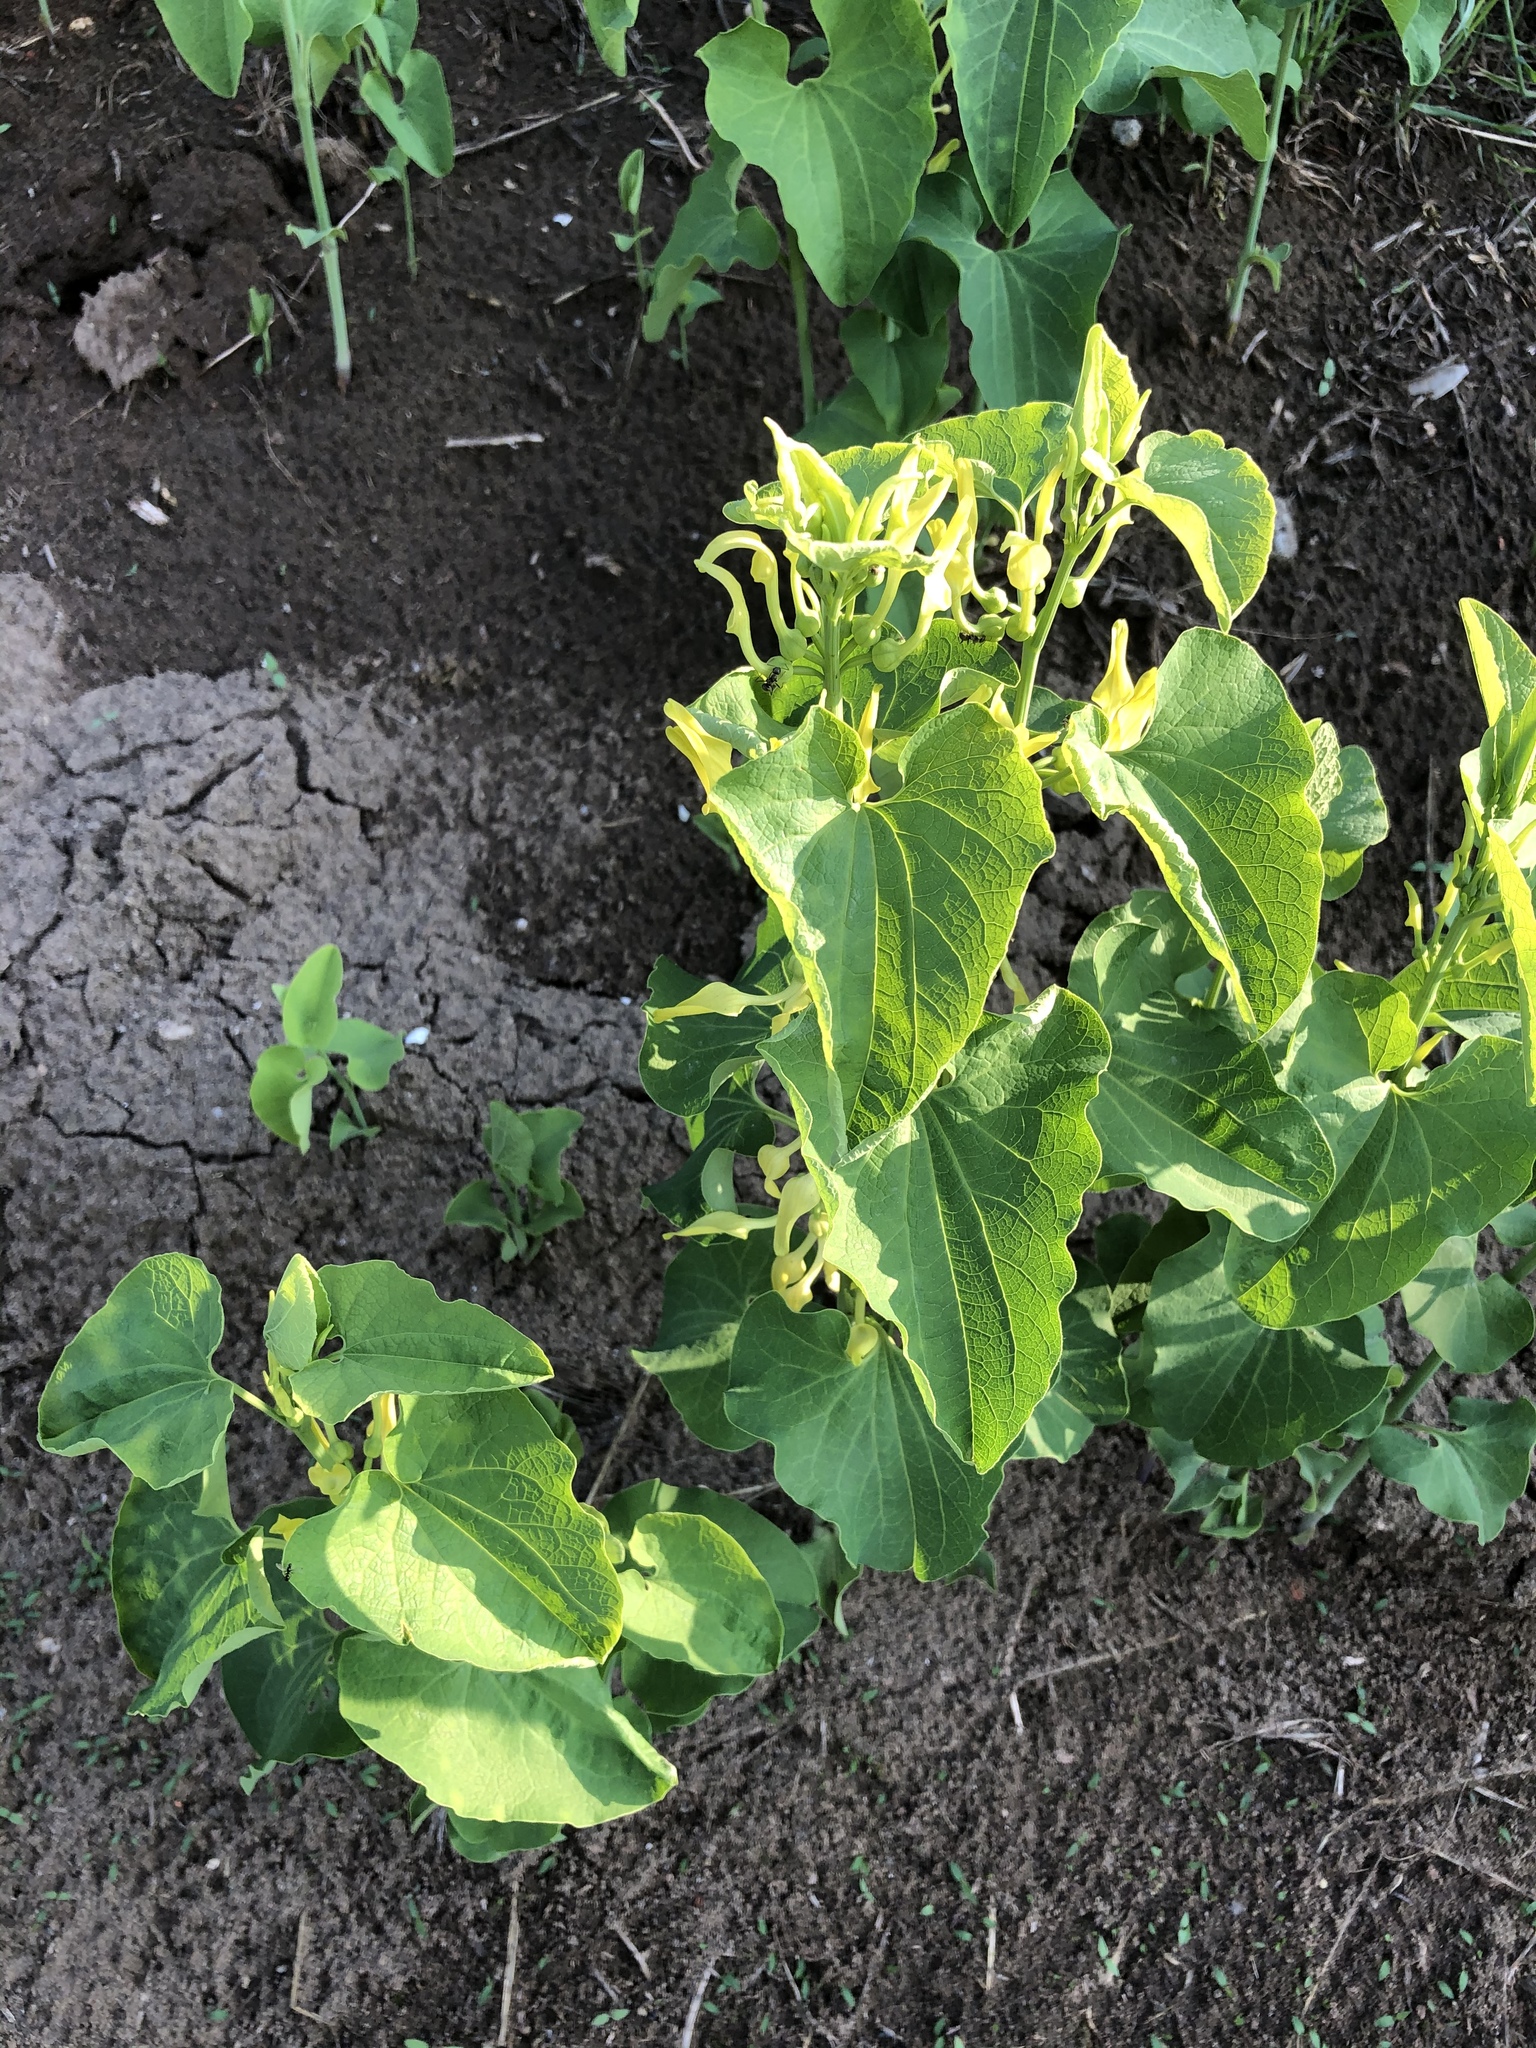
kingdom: Plantae
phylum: Tracheophyta
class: Magnoliopsida
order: Piperales
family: Aristolochiaceae
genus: Aristolochia
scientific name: Aristolochia clematitis
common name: Birthwort
